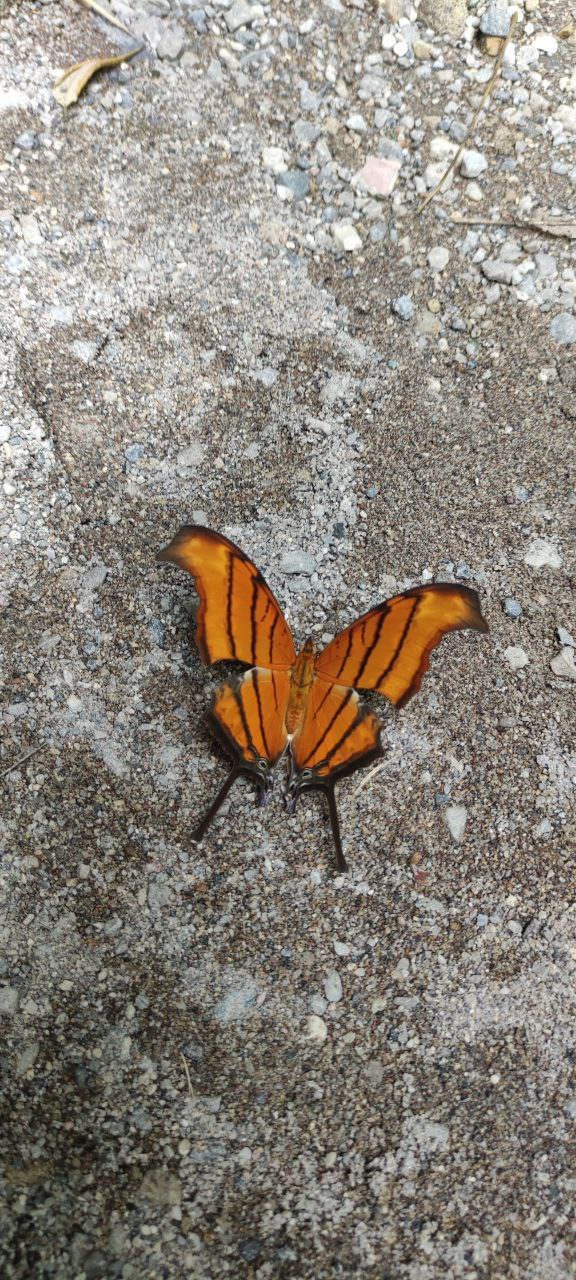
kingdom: Animalia
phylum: Arthropoda
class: Insecta
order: Lepidoptera
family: Nymphalidae
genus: Marpesia
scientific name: Marpesia petreus
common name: Red dagger wing
